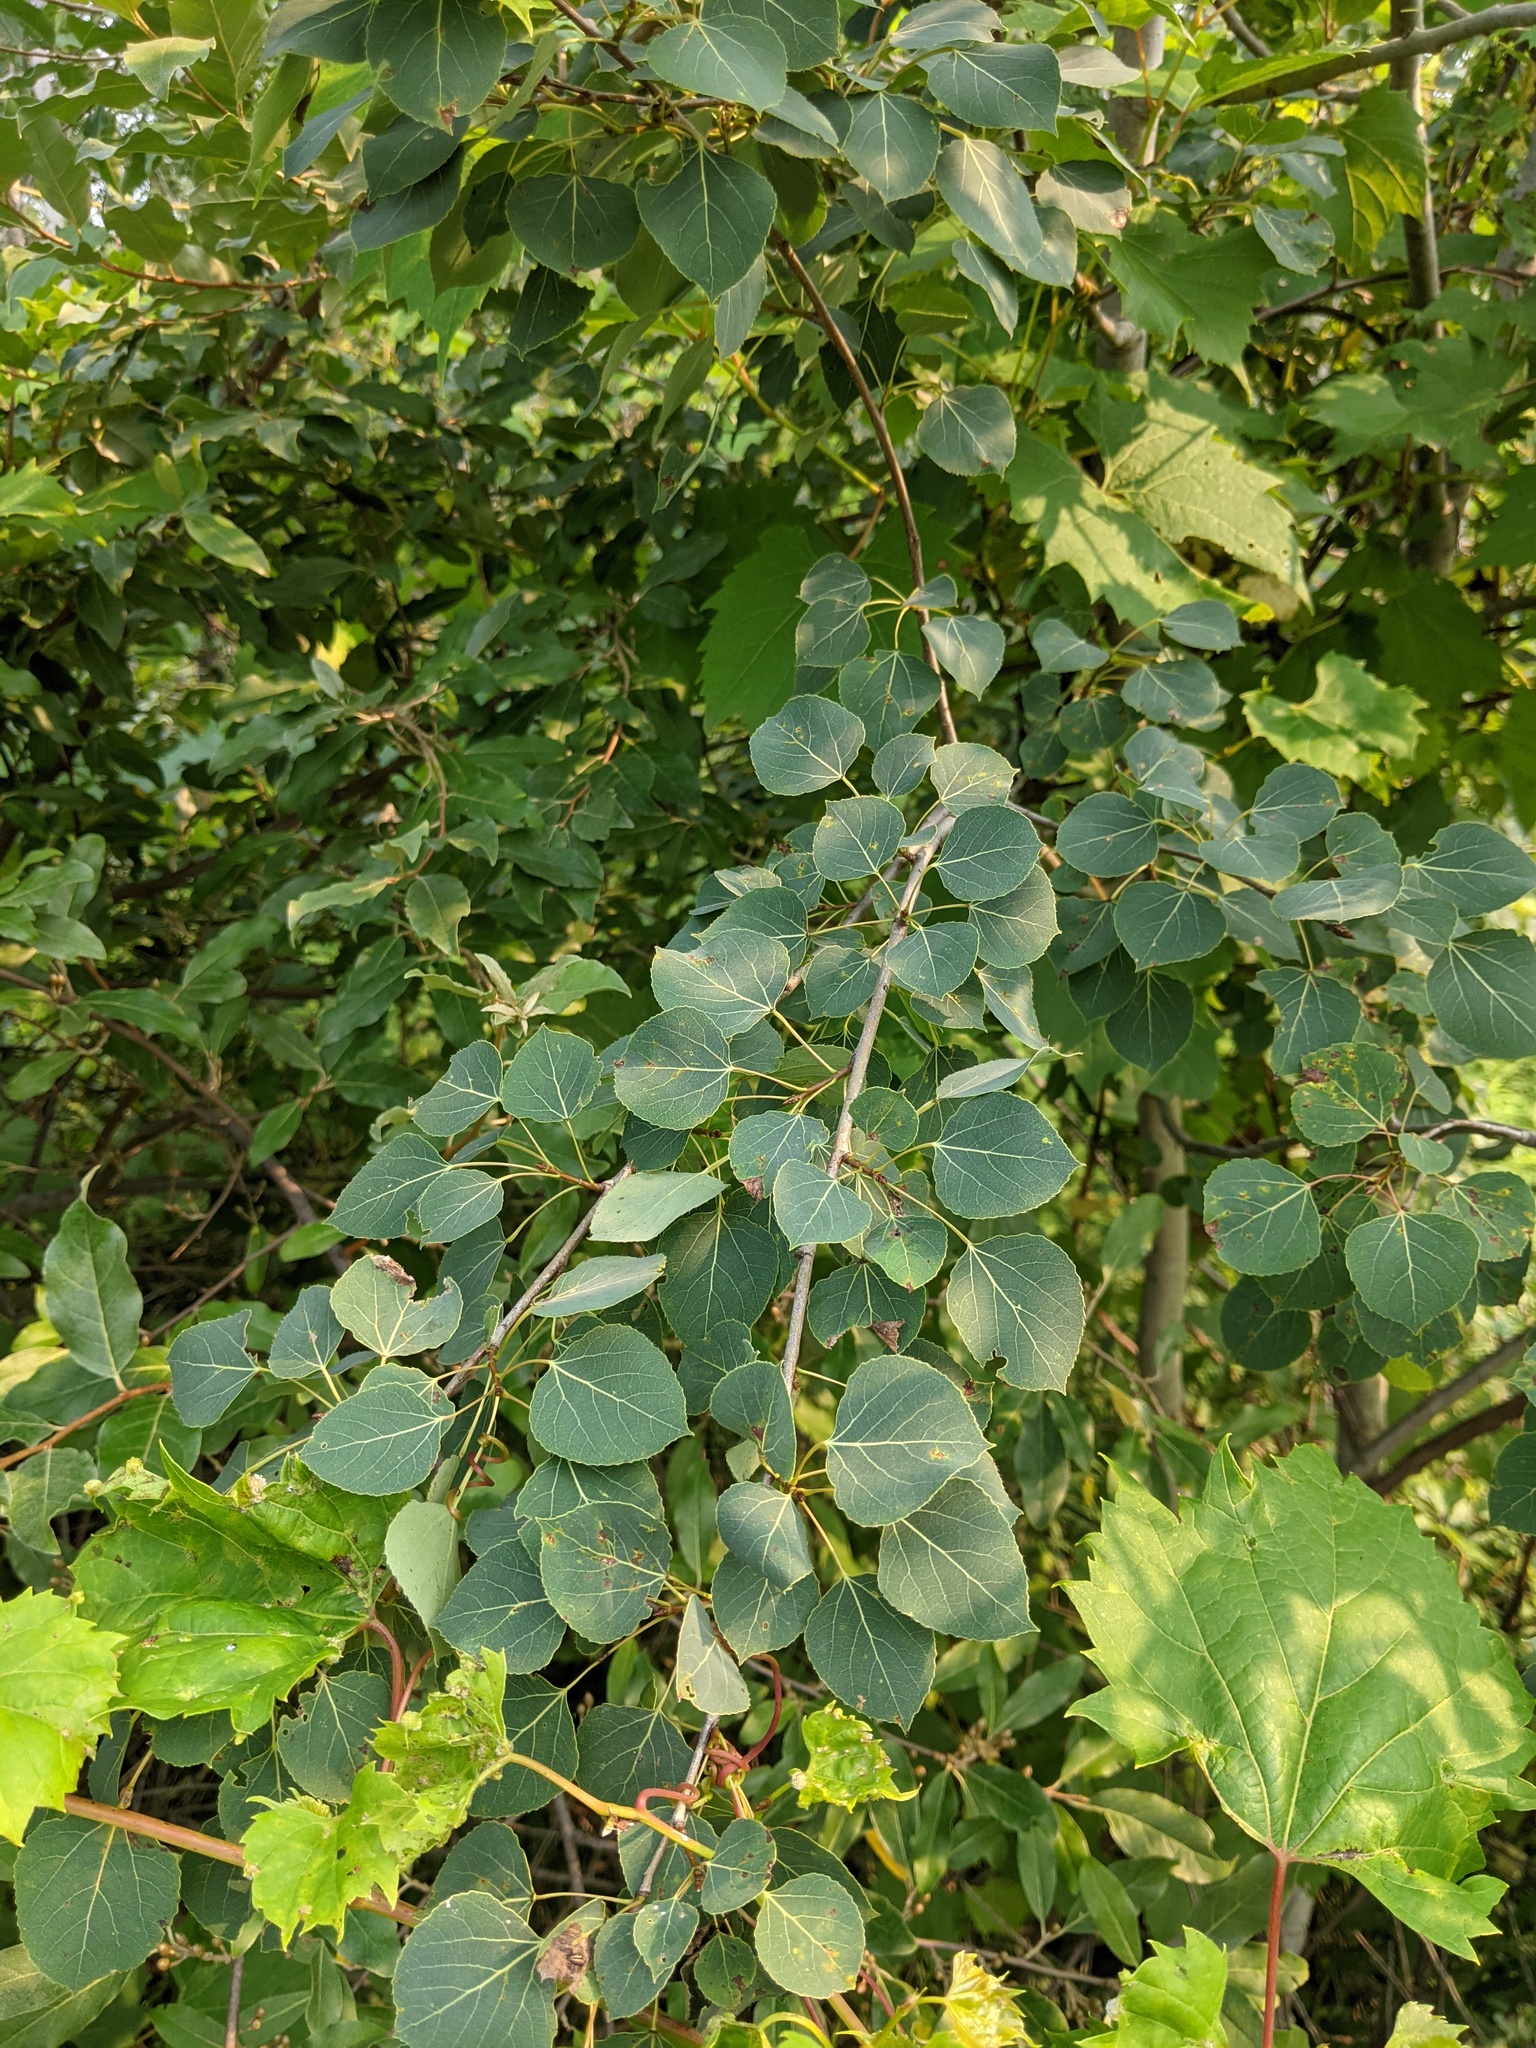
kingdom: Plantae
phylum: Tracheophyta
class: Magnoliopsida
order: Malpighiales
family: Salicaceae
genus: Populus
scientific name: Populus tremuloides
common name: Quaking aspen
